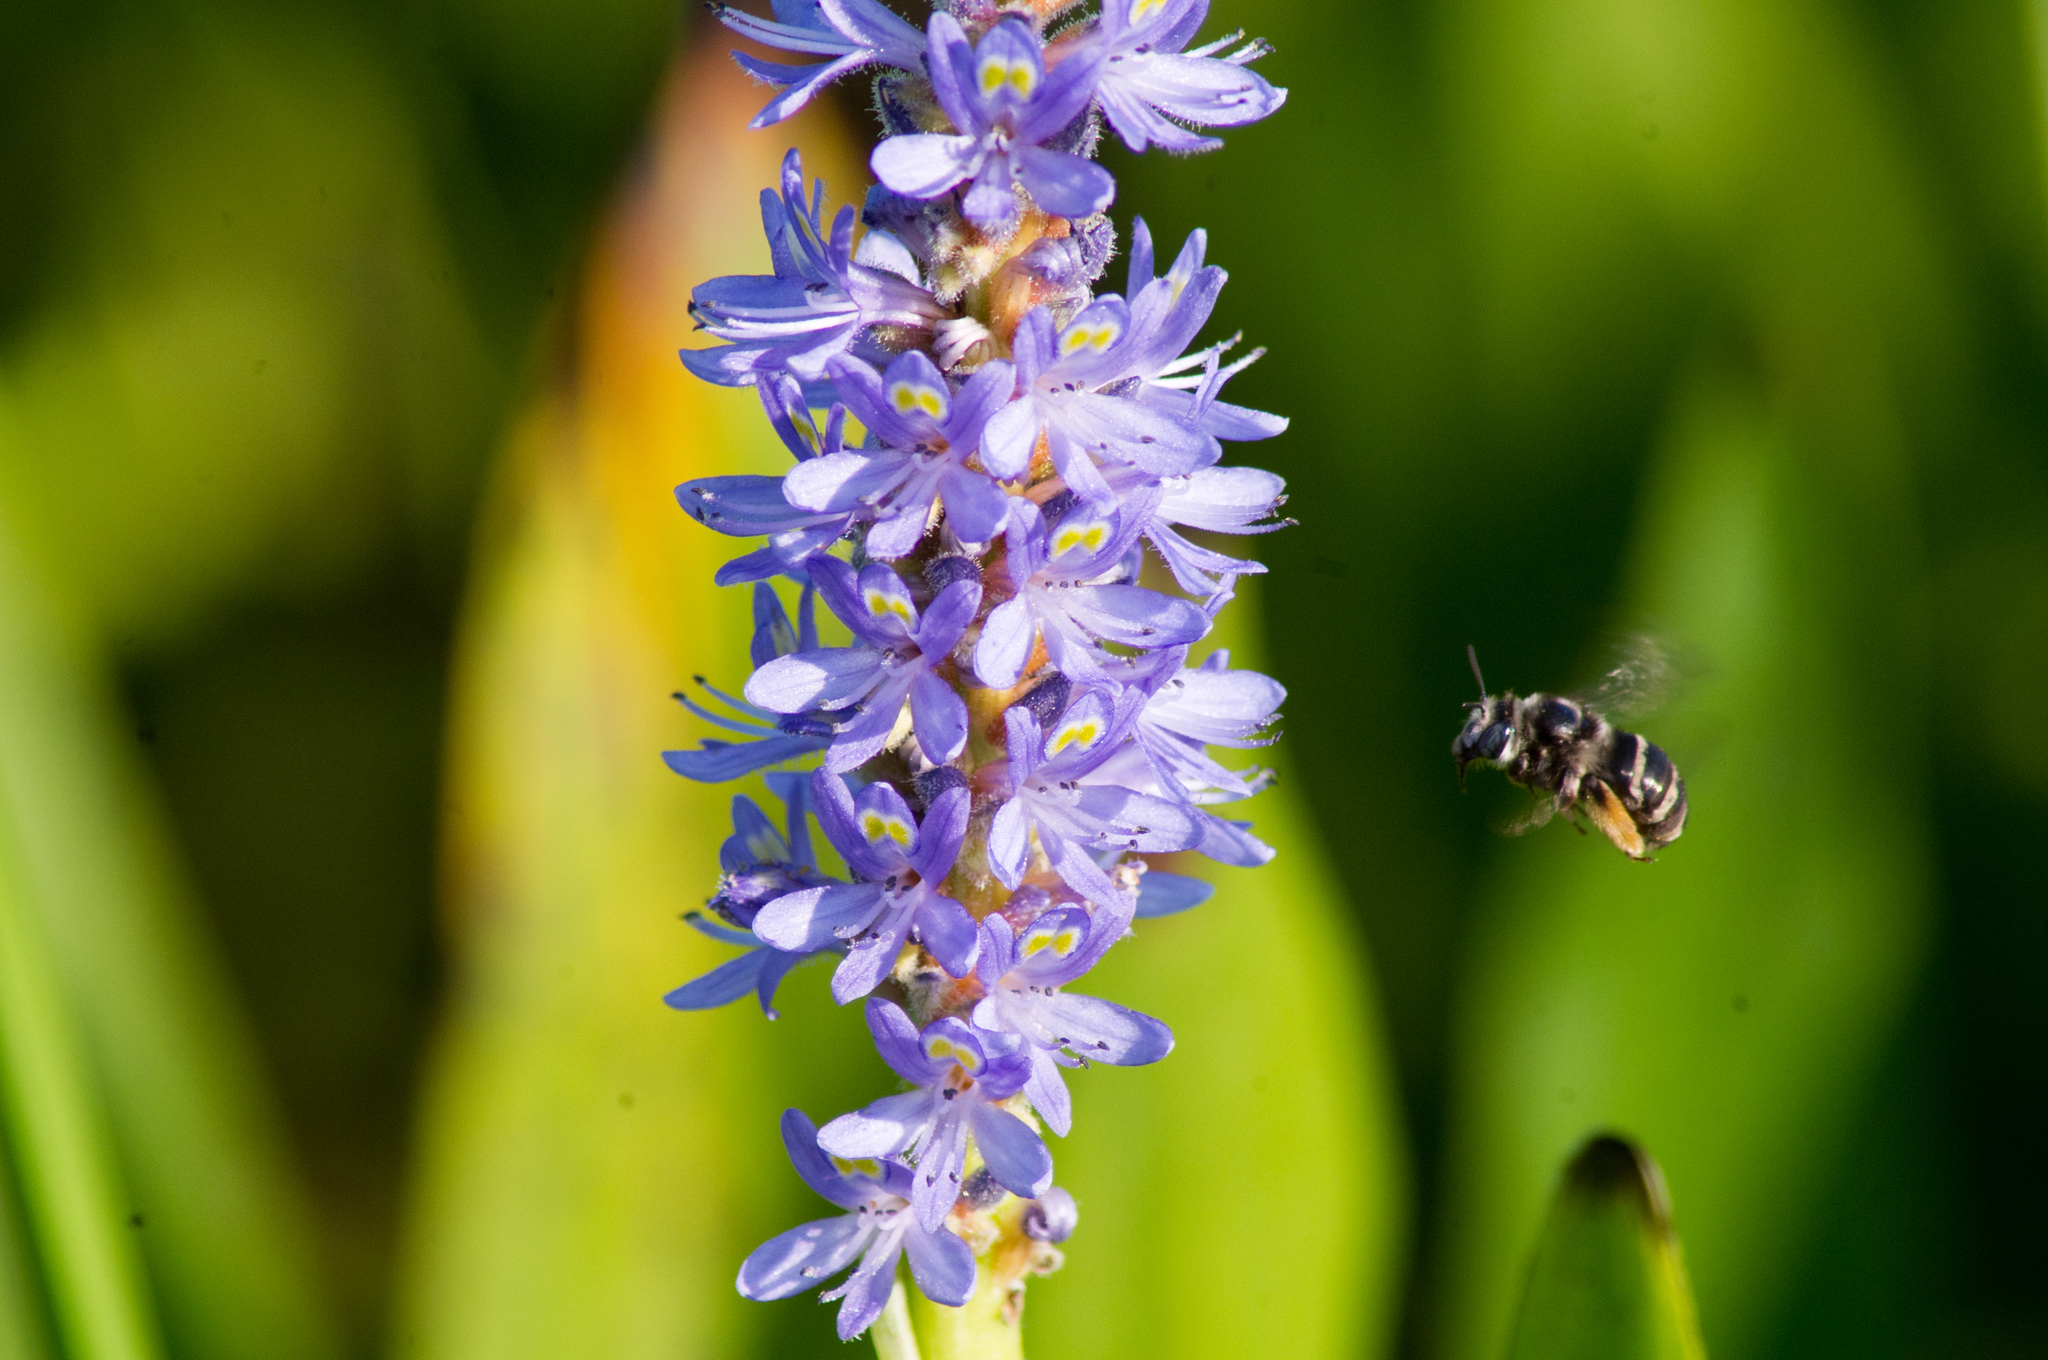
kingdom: Animalia
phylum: Arthropoda
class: Insecta
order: Hymenoptera
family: Apidae
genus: Florilegus
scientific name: Florilegus condignus
